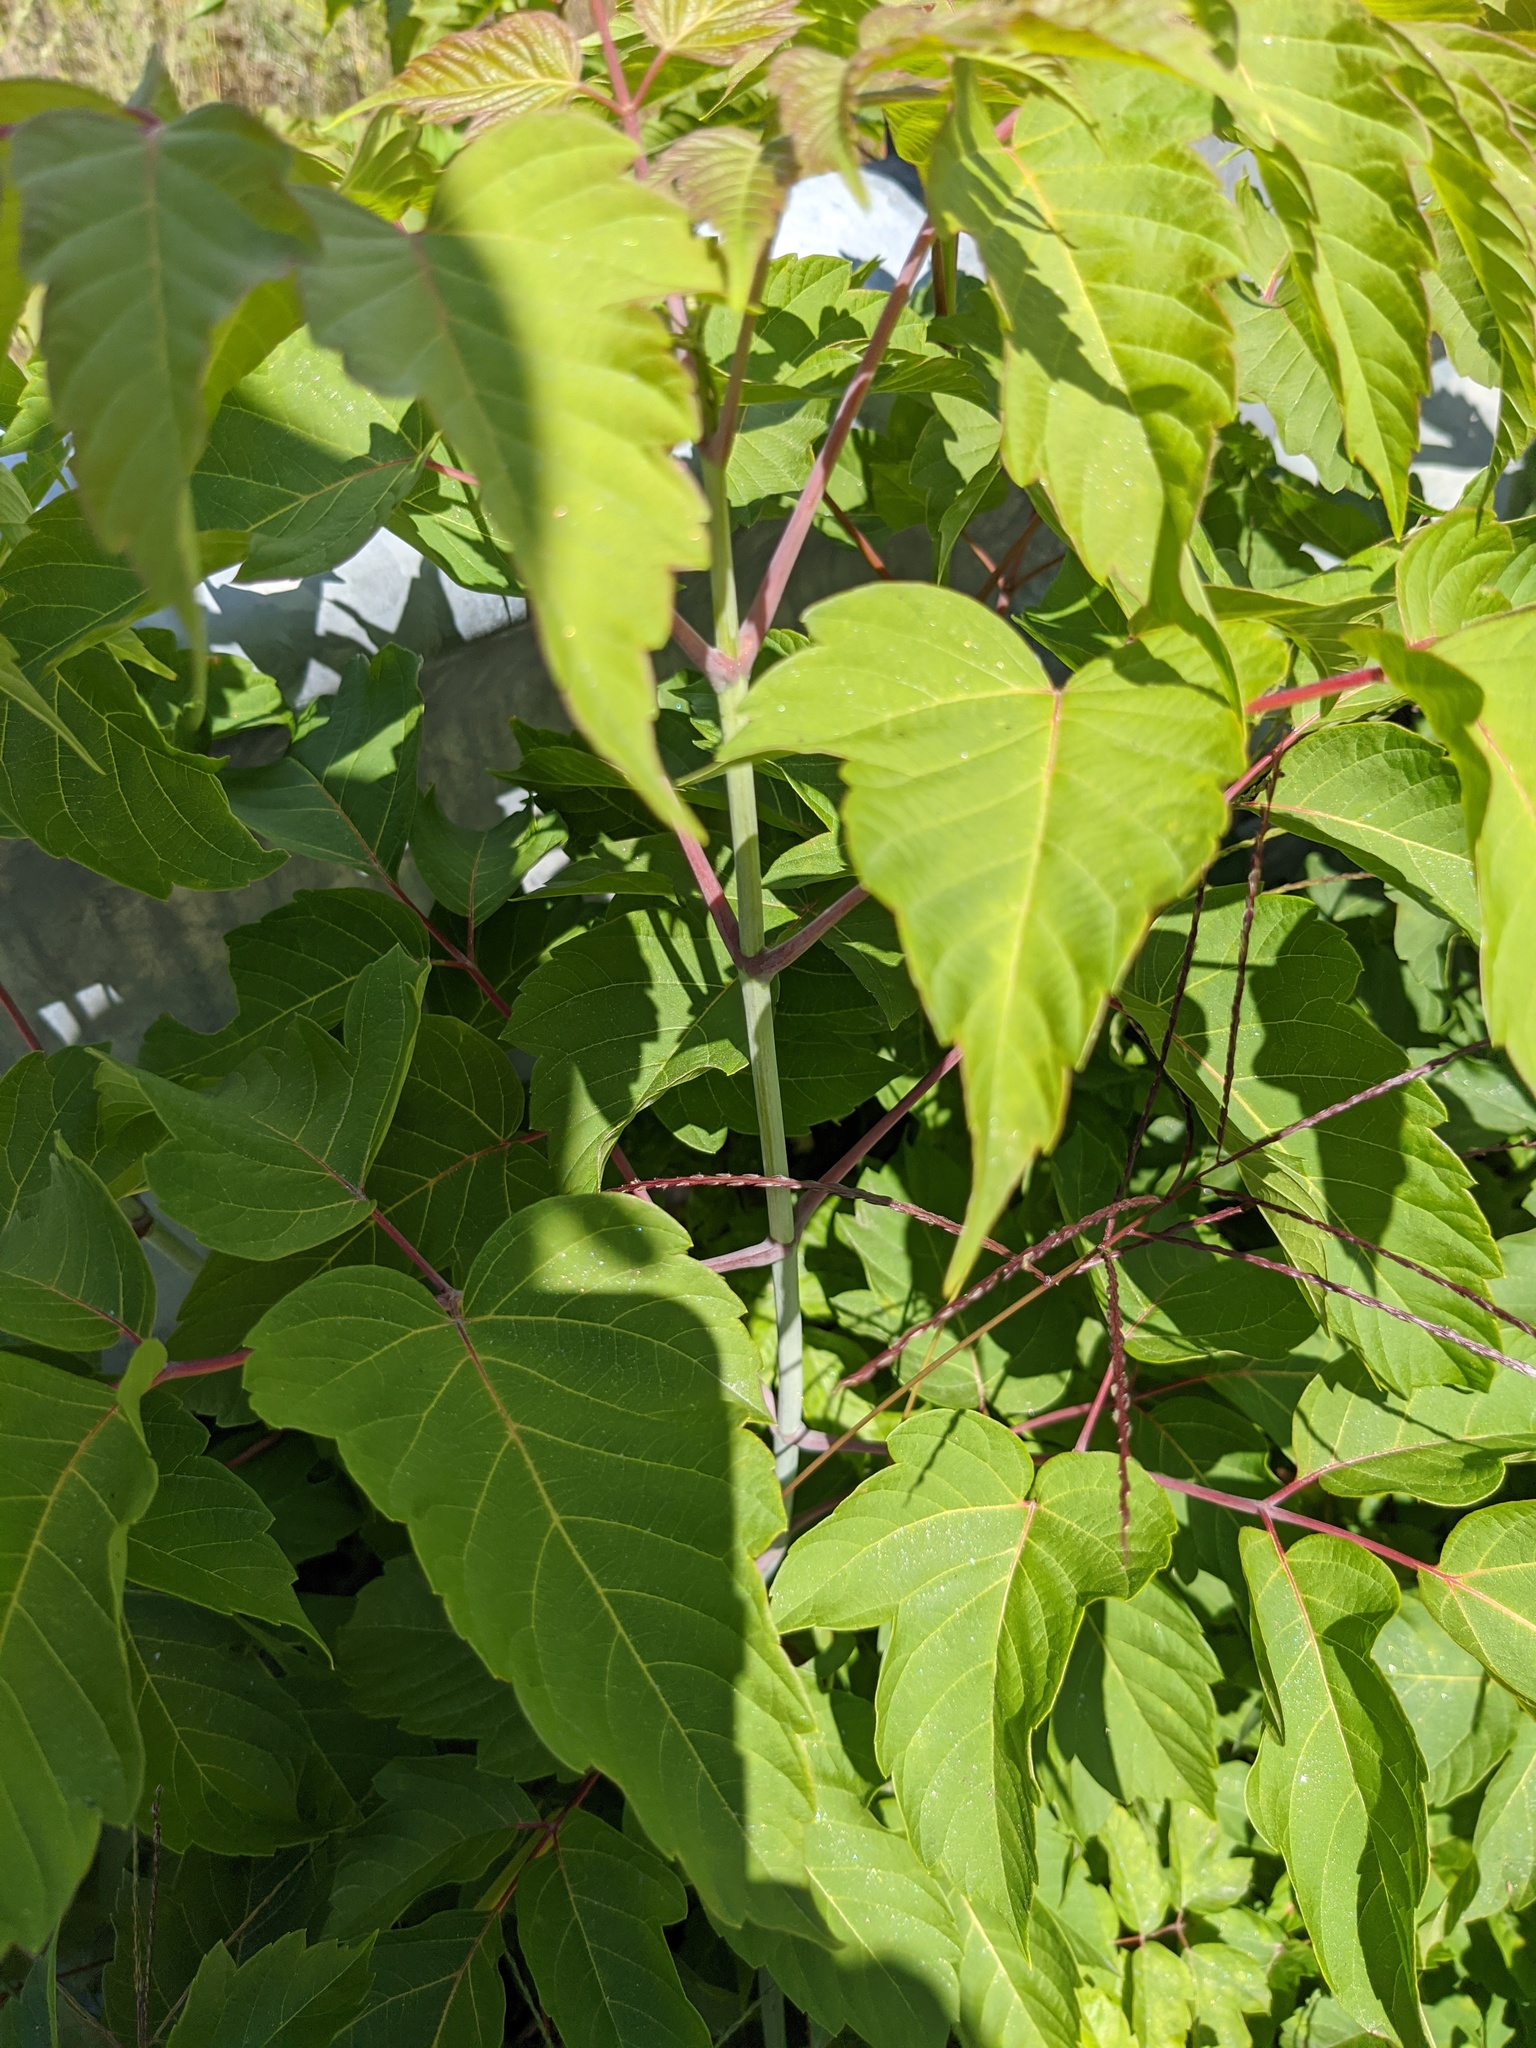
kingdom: Plantae
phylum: Tracheophyta
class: Magnoliopsida
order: Sapindales
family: Sapindaceae
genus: Acer
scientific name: Acer negundo
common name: Ashleaf maple
